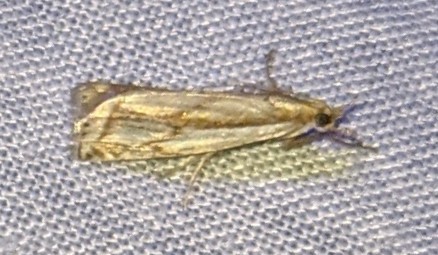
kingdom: Animalia
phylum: Arthropoda
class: Insecta
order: Lepidoptera
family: Crambidae
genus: Crambus
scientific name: Crambus agitatellus
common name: Double-banded grass-veneer
